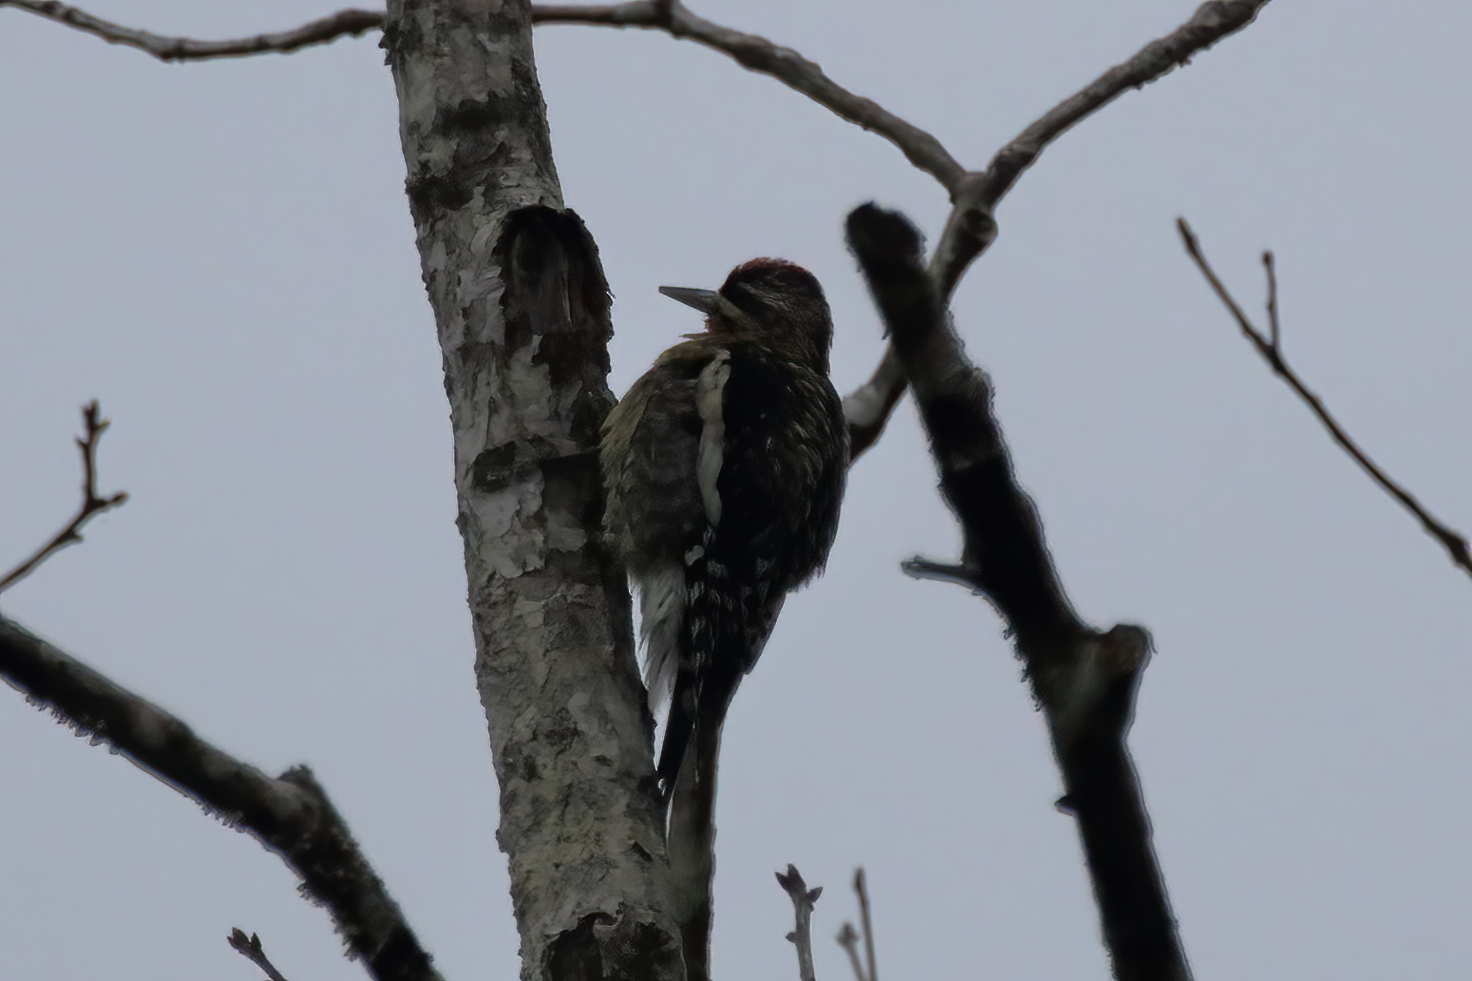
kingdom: Animalia
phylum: Chordata
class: Aves
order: Piciformes
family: Picidae
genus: Sphyrapicus
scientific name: Sphyrapicus varius
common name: Yellow-bellied sapsucker
